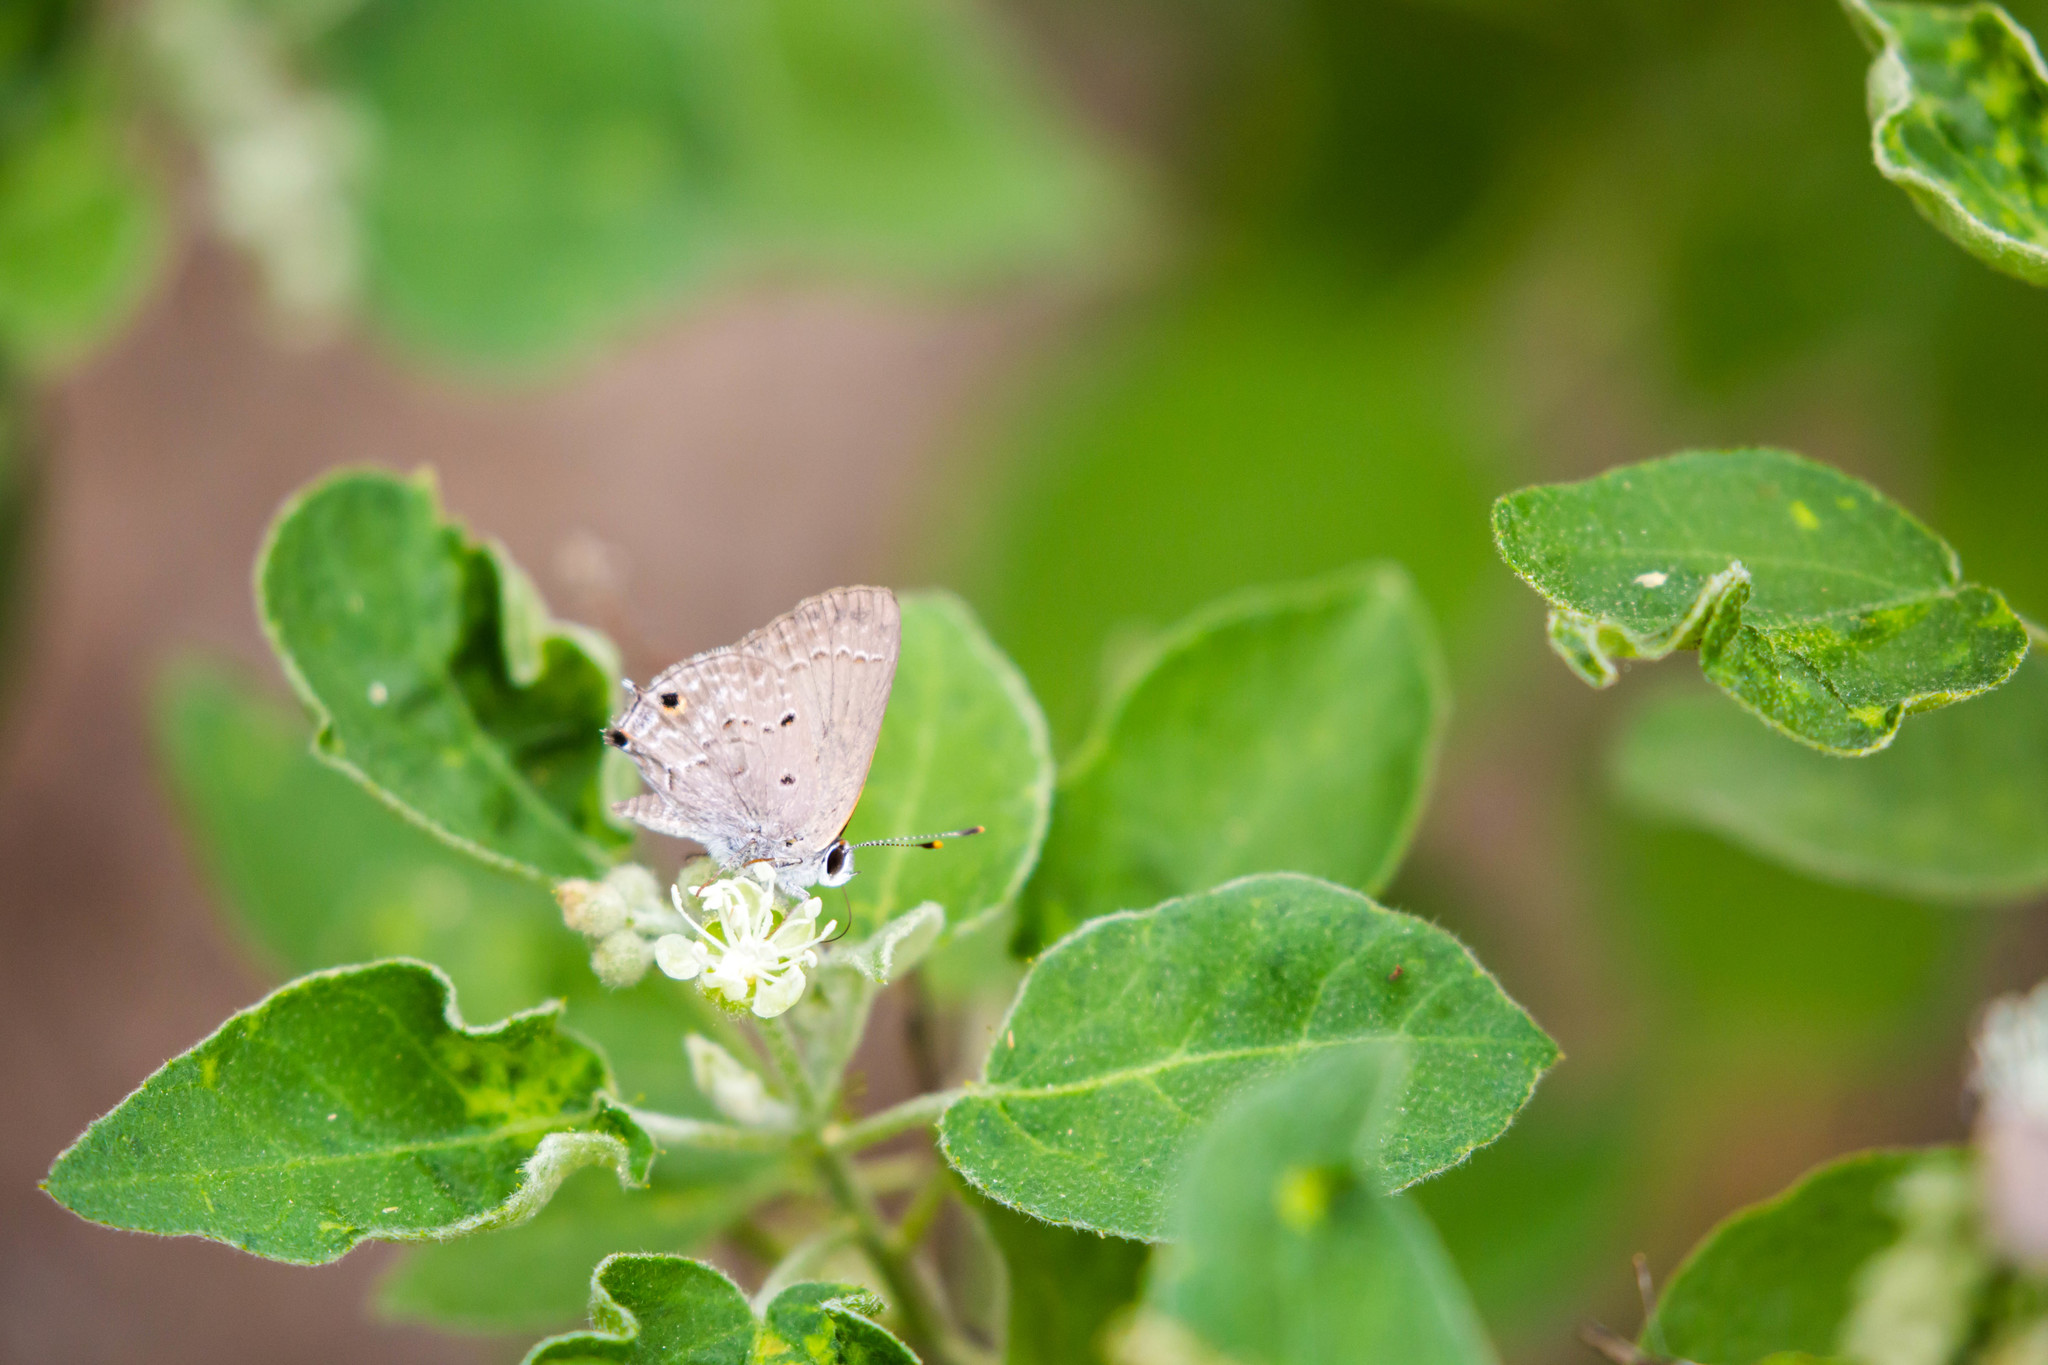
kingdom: Animalia
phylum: Arthropoda
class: Insecta
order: Lepidoptera
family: Lycaenidae
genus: Callicista
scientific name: Callicista columella
